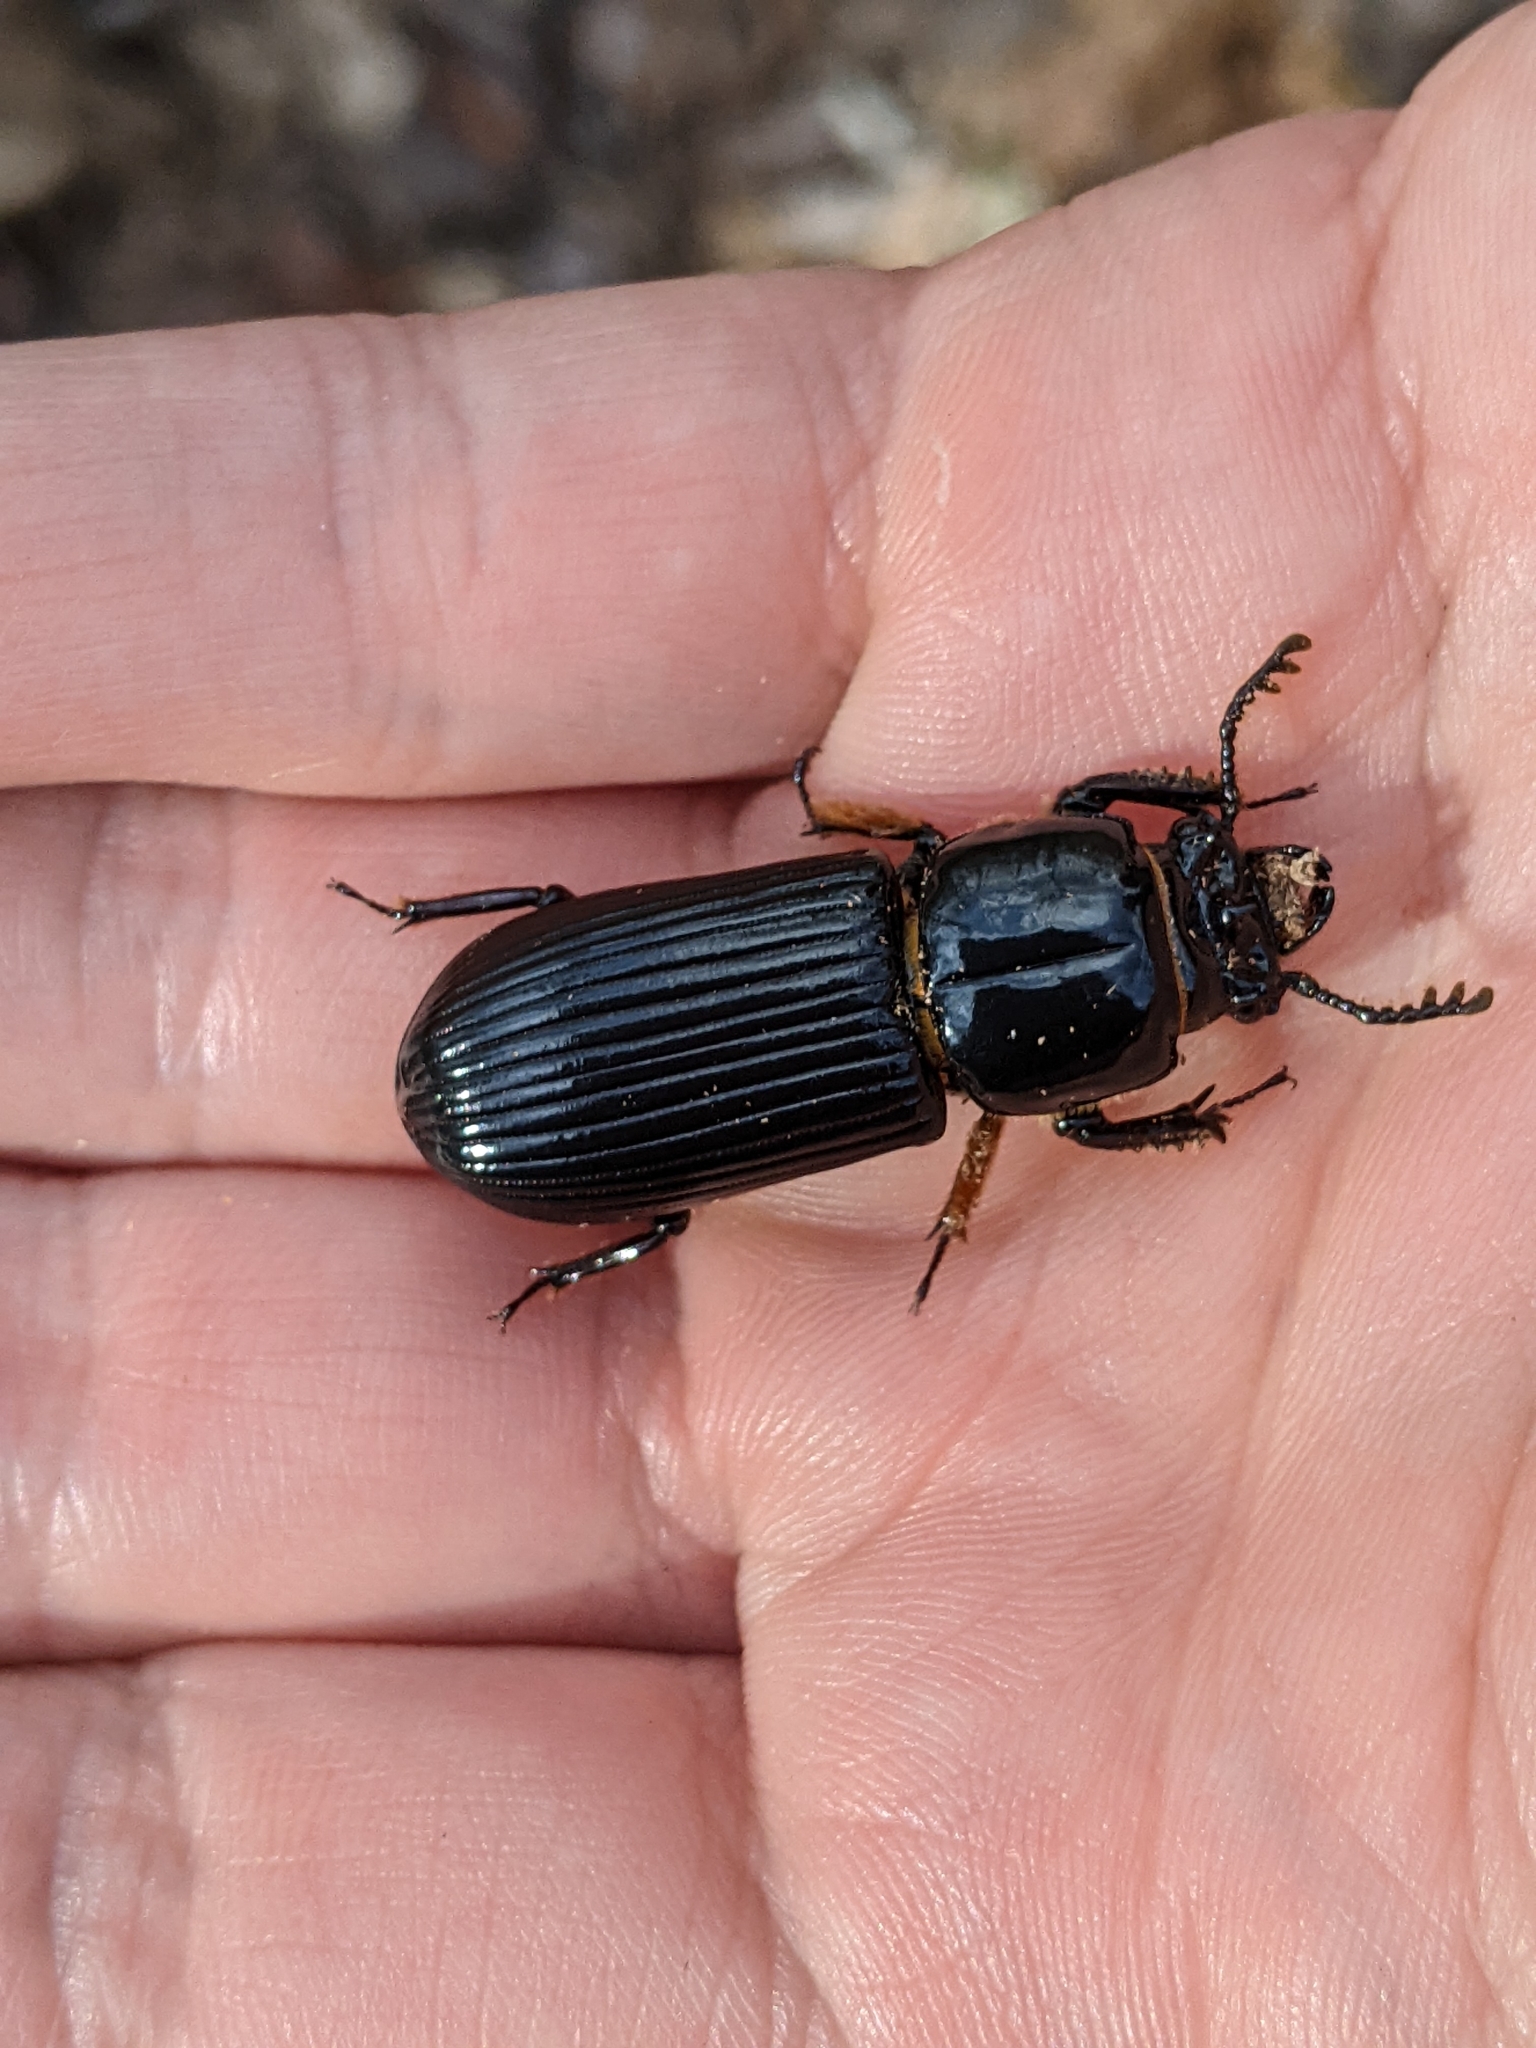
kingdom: Animalia
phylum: Arthropoda
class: Insecta
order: Coleoptera
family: Passalidae
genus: Odontotaenius
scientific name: Odontotaenius disjunctus
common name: Patent leather beetle
